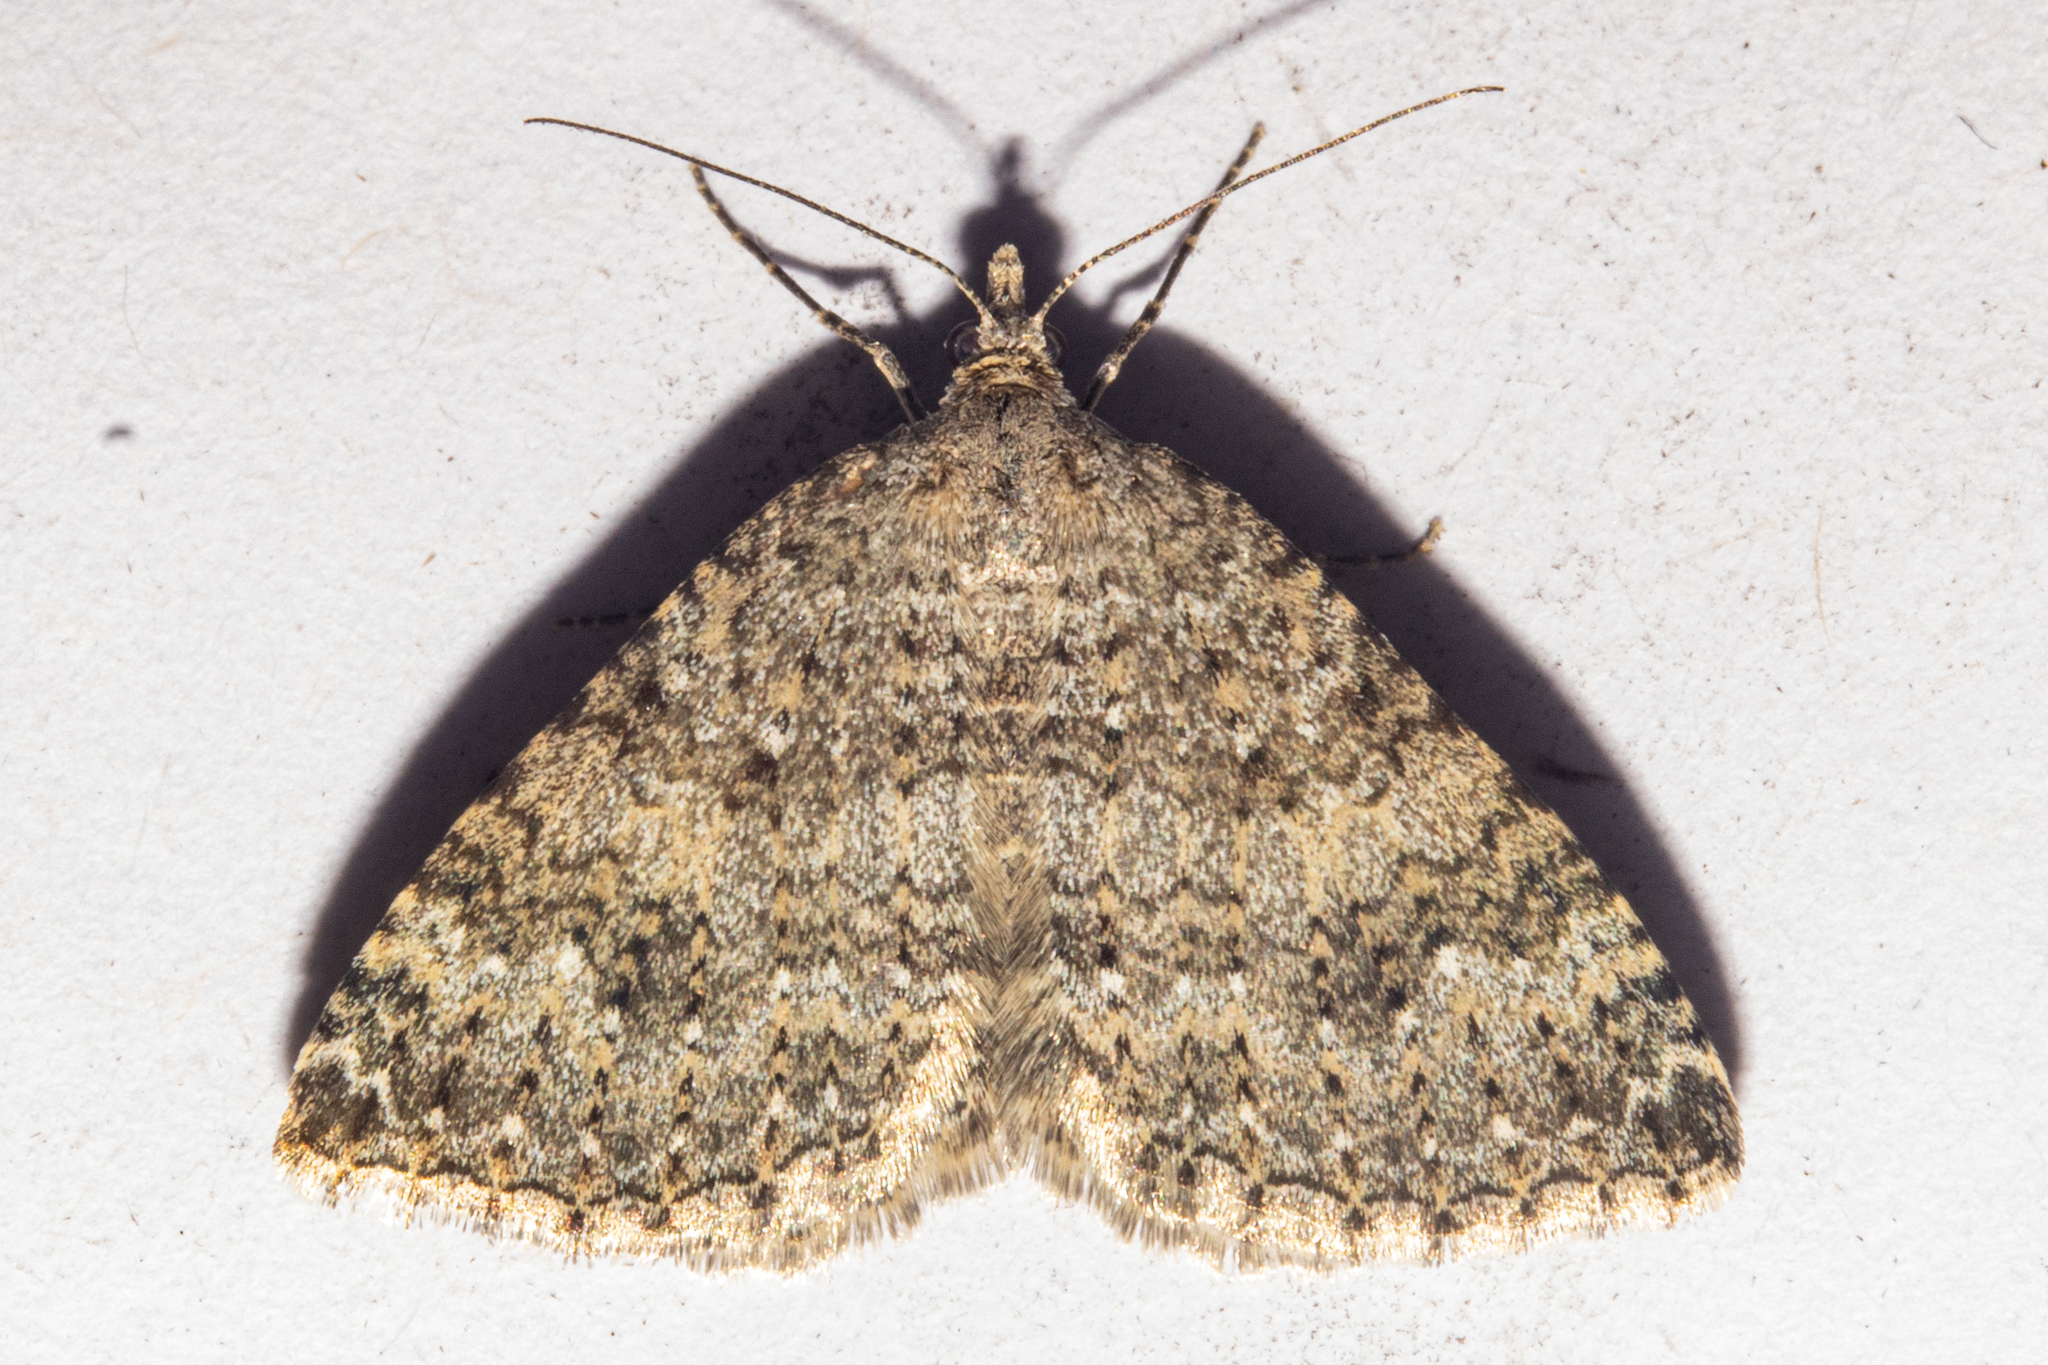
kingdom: Animalia
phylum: Arthropoda
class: Insecta
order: Lepidoptera
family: Geometridae
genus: Helastia
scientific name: Helastia corcularia
